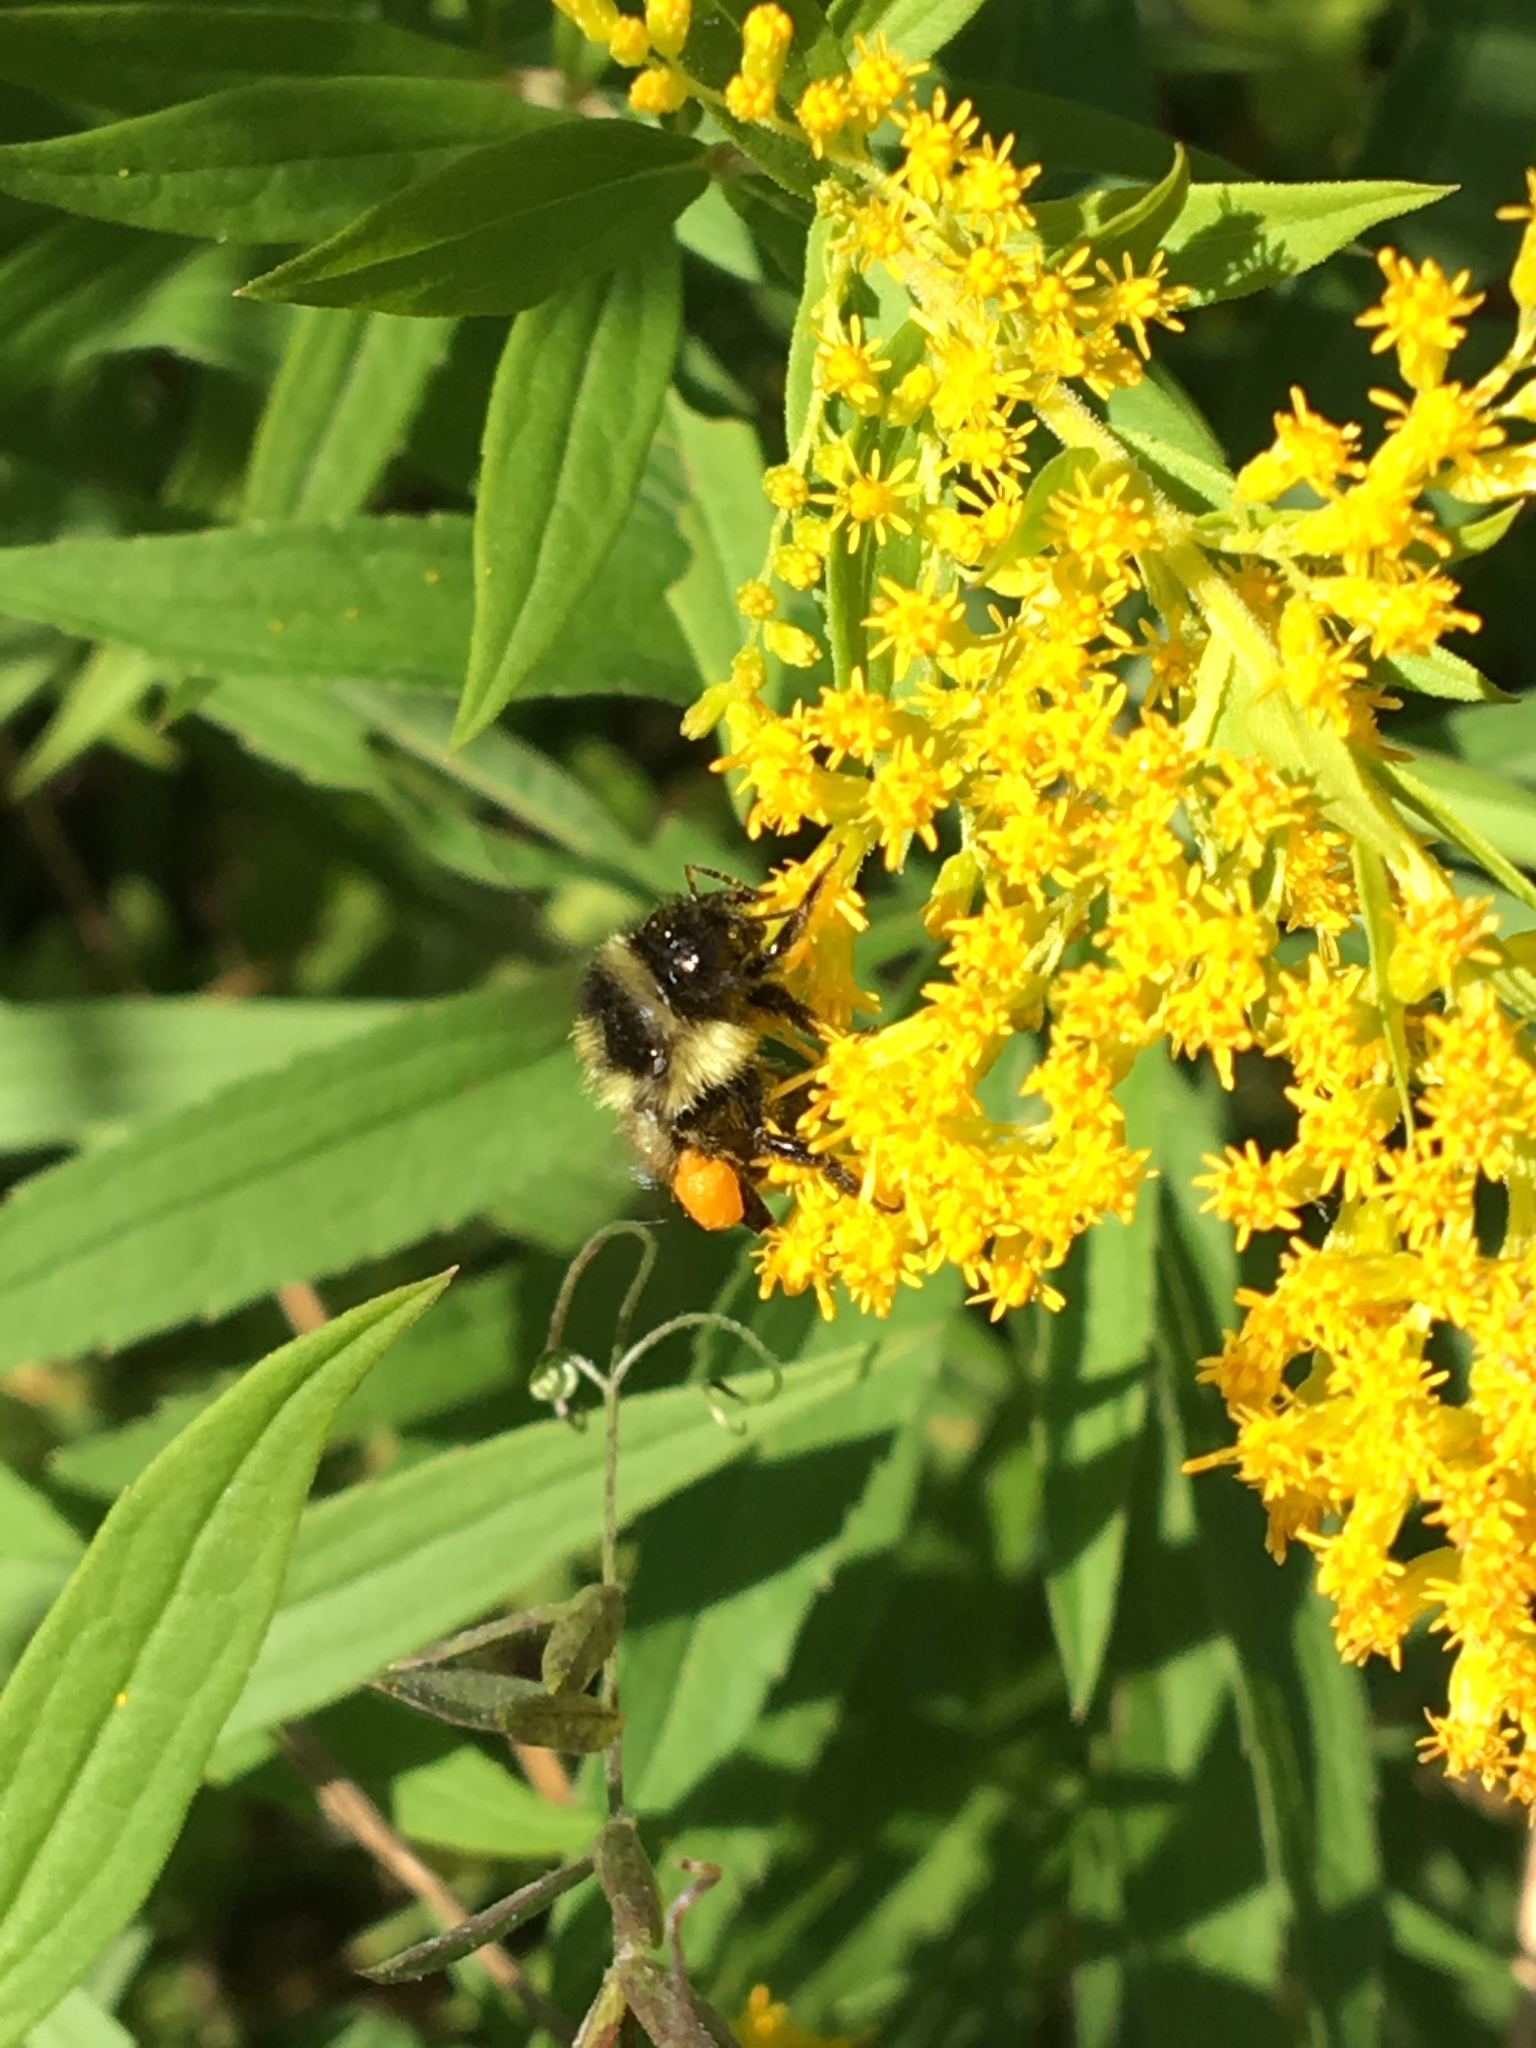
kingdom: Animalia
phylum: Arthropoda
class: Insecta
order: Hymenoptera
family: Apidae
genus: Bombus
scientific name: Bombus ternarius
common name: Tri-colored bumble bee
